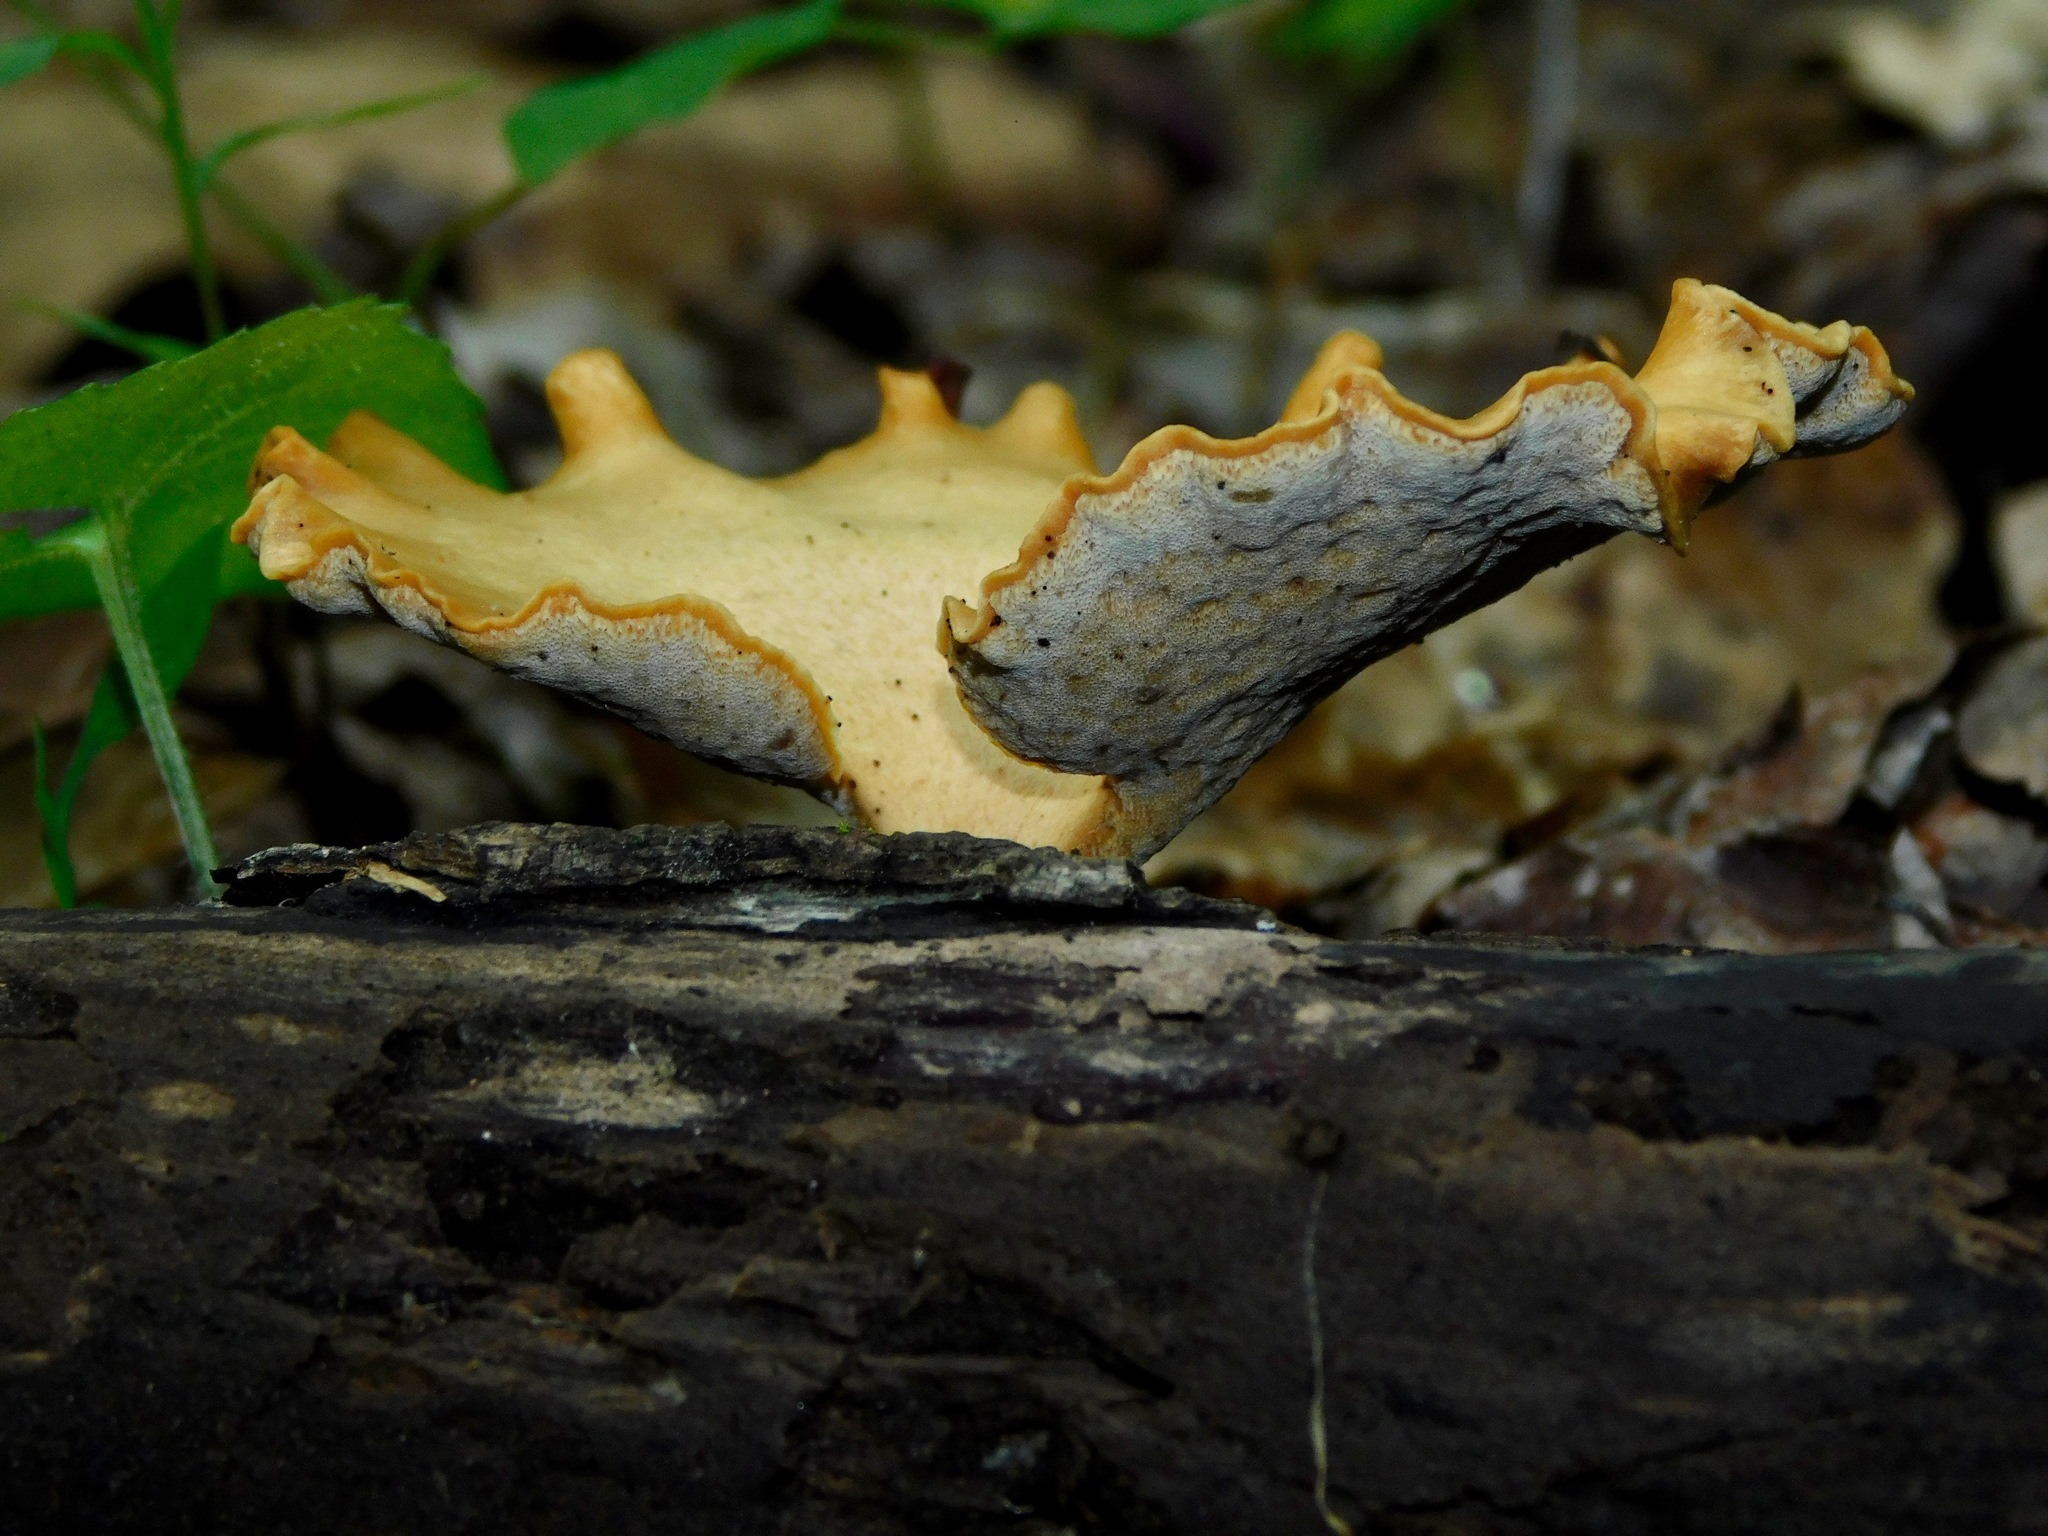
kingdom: Fungi
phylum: Basidiomycota
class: Agaricomycetes
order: Polyporales
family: Polyporaceae
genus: Cerioporus
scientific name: Cerioporus leptocephalus
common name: Blackfoot polypore
